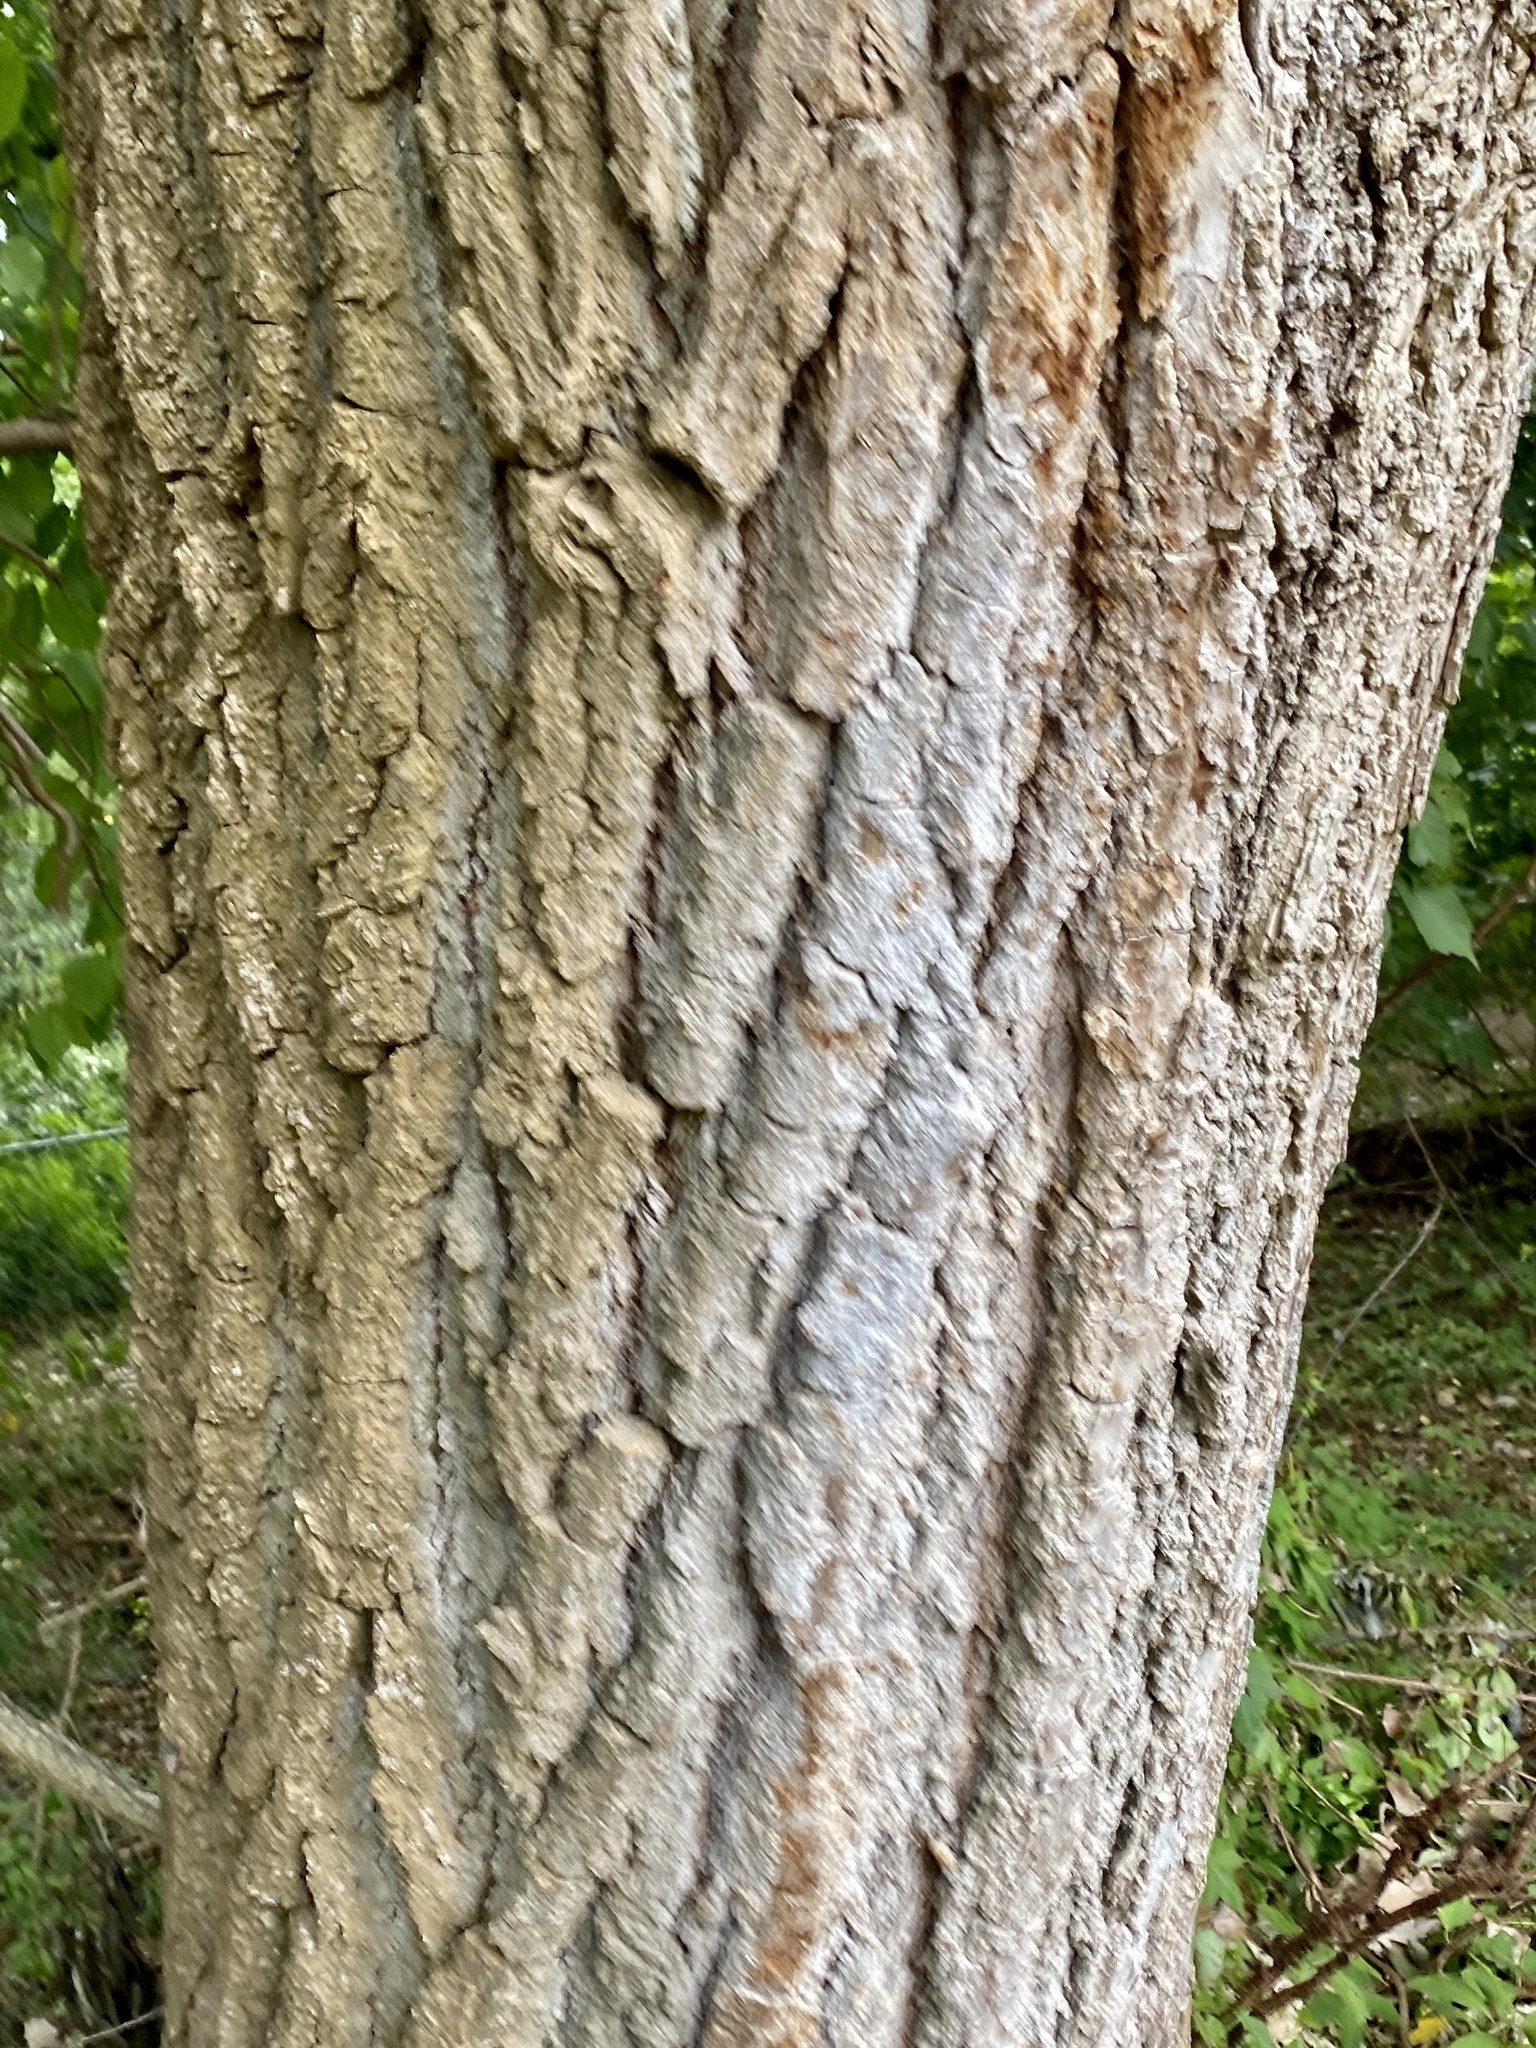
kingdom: Plantae
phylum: Tracheophyta
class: Magnoliopsida
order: Malpighiales
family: Salicaceae
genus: Populus
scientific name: Populus deltoides
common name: Eastern cottonwood
